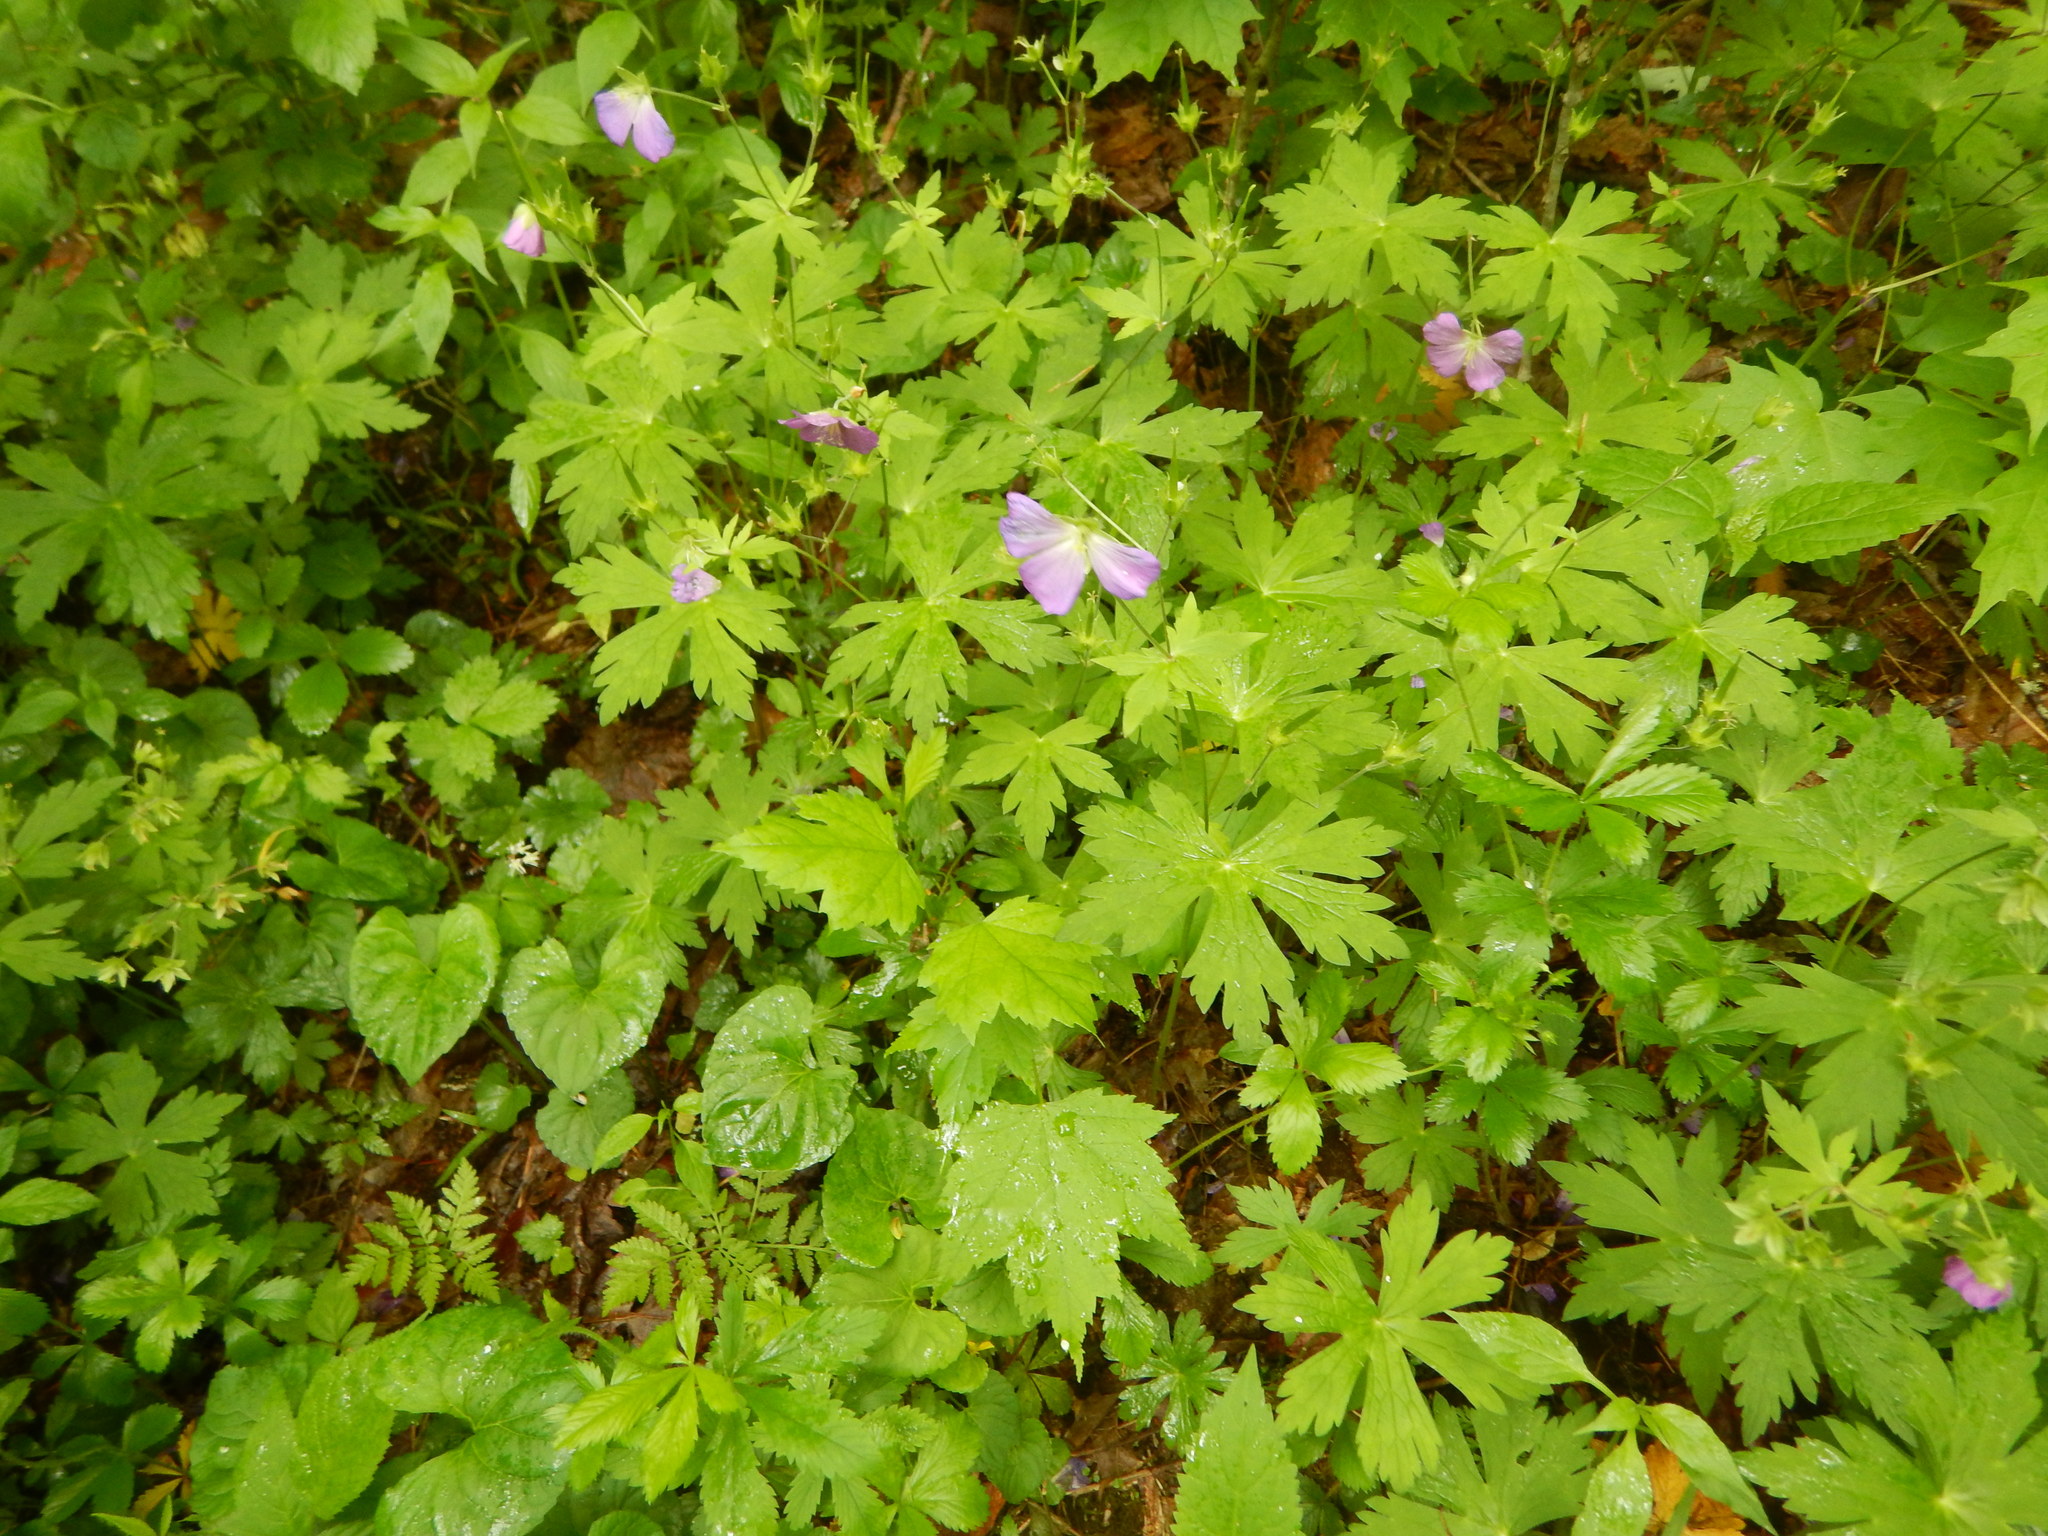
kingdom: Plantae
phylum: Tracheophyta
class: Magnoliopsida
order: Geraniales
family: Geraniaceae
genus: Geranium
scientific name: Geranium maculatum
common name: Spotted geranium
